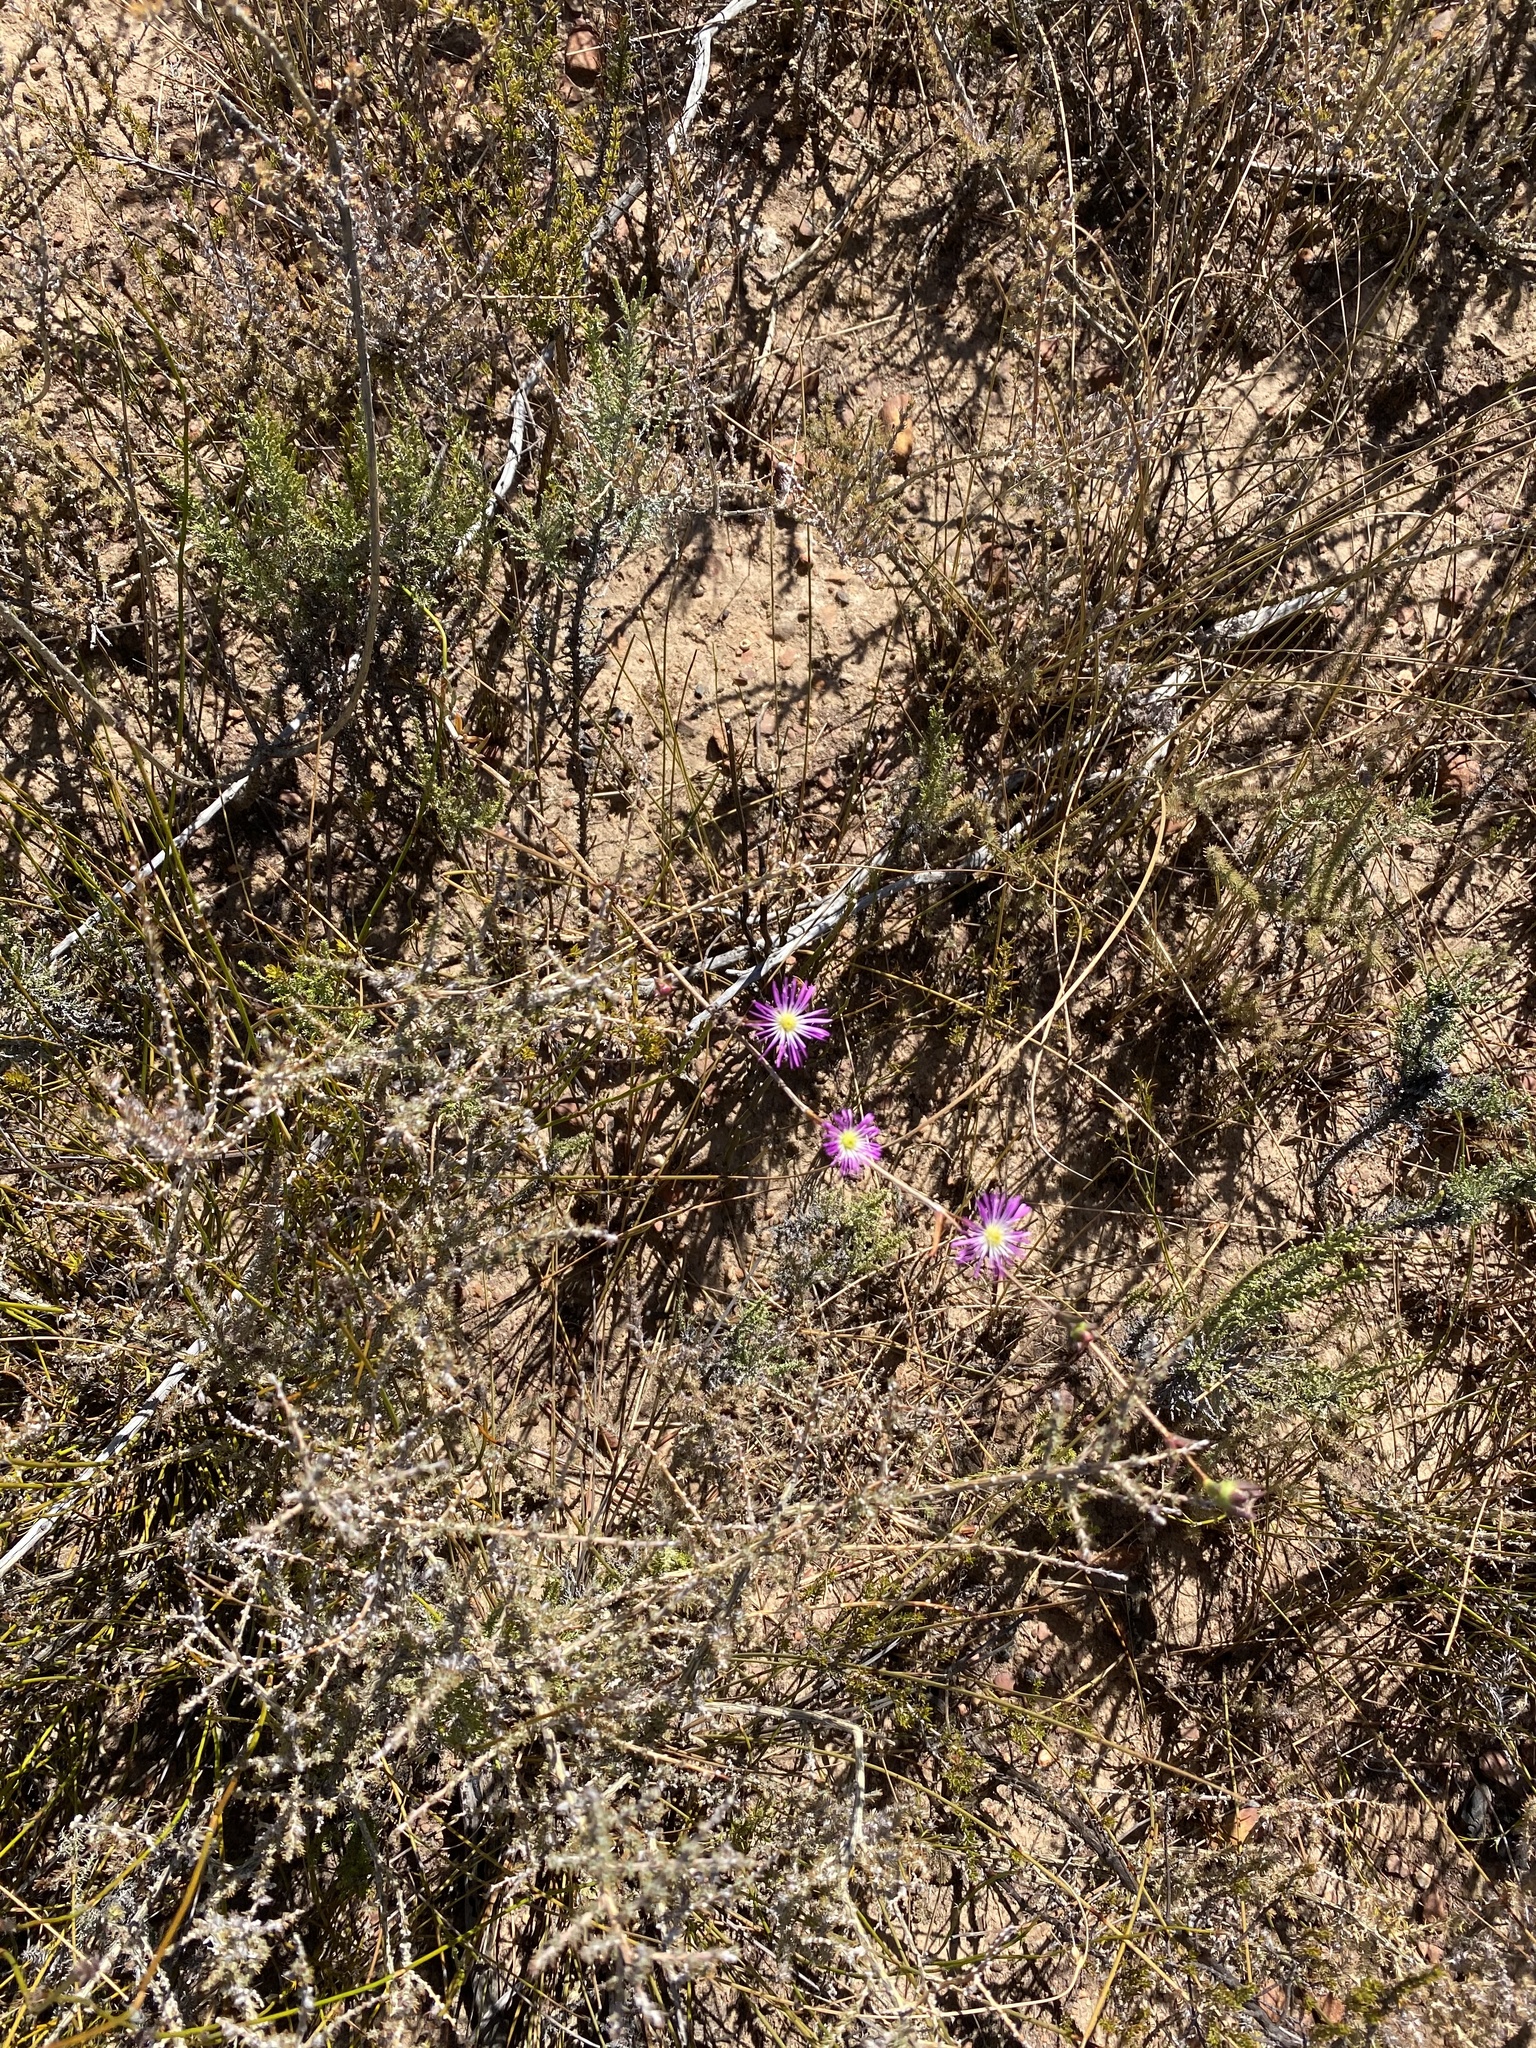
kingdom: Plantae
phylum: Tracheophyta
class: Magnoliopsida
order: Caryophyllales
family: Aizoaceae
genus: Erepsia
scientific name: Erepsia gracilis
